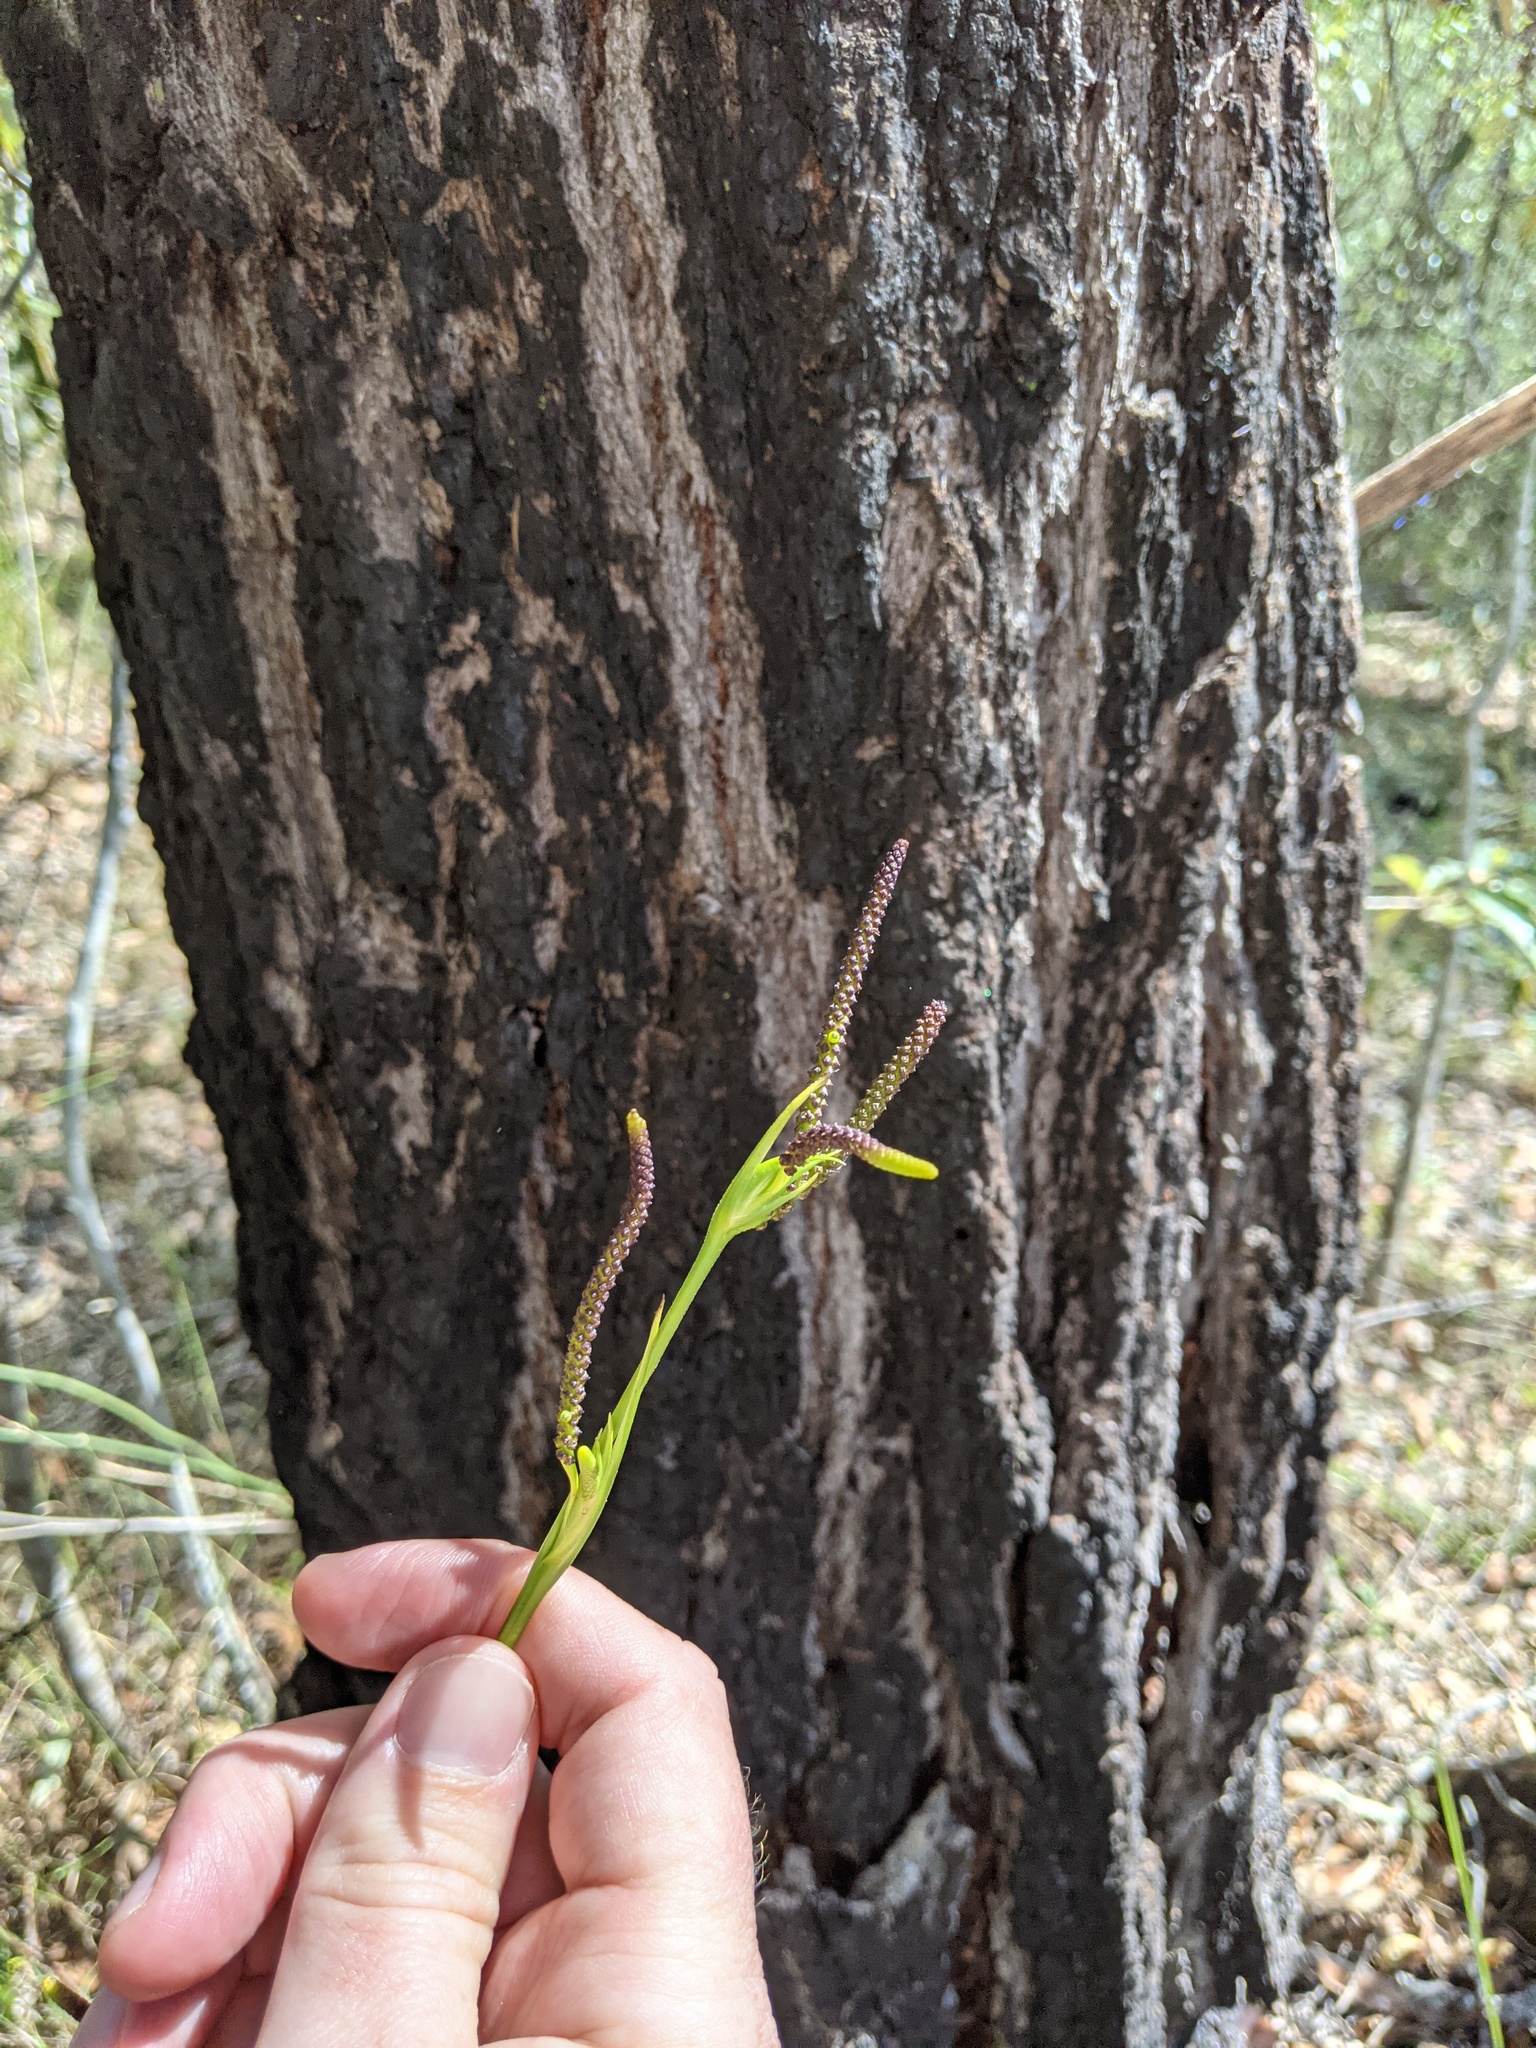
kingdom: Plantae
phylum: Tracheophyta
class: Liliopsida
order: Alismatales
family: Araceae
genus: Gymnostachys
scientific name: Gymnostachys anceps
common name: Settler's-flax
